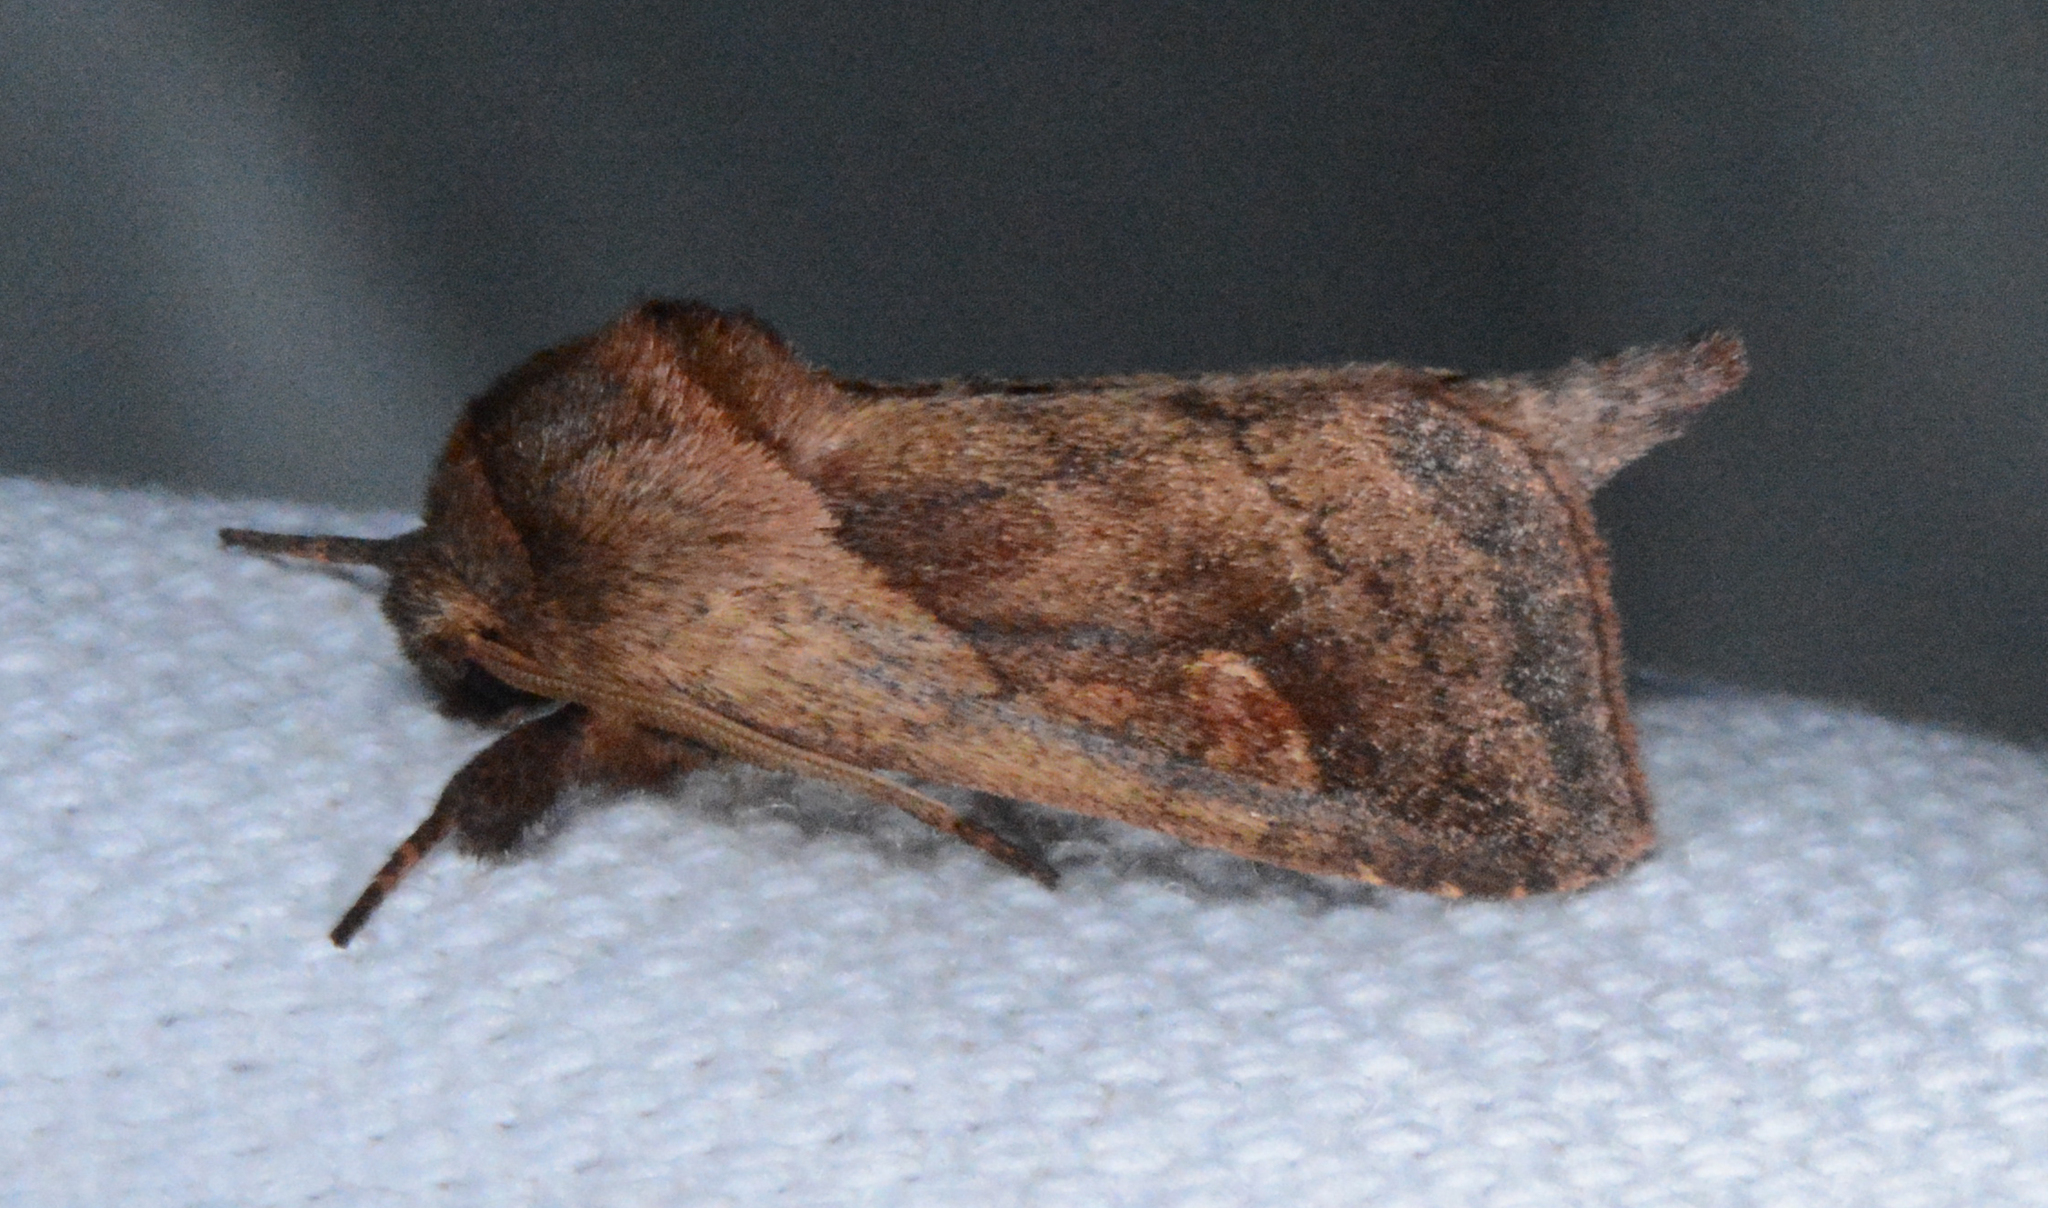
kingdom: Animalia
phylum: Arthropoda
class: Insecta
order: Lepidoptera
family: Noctuidae
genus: Bellura
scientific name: Bellura densa
